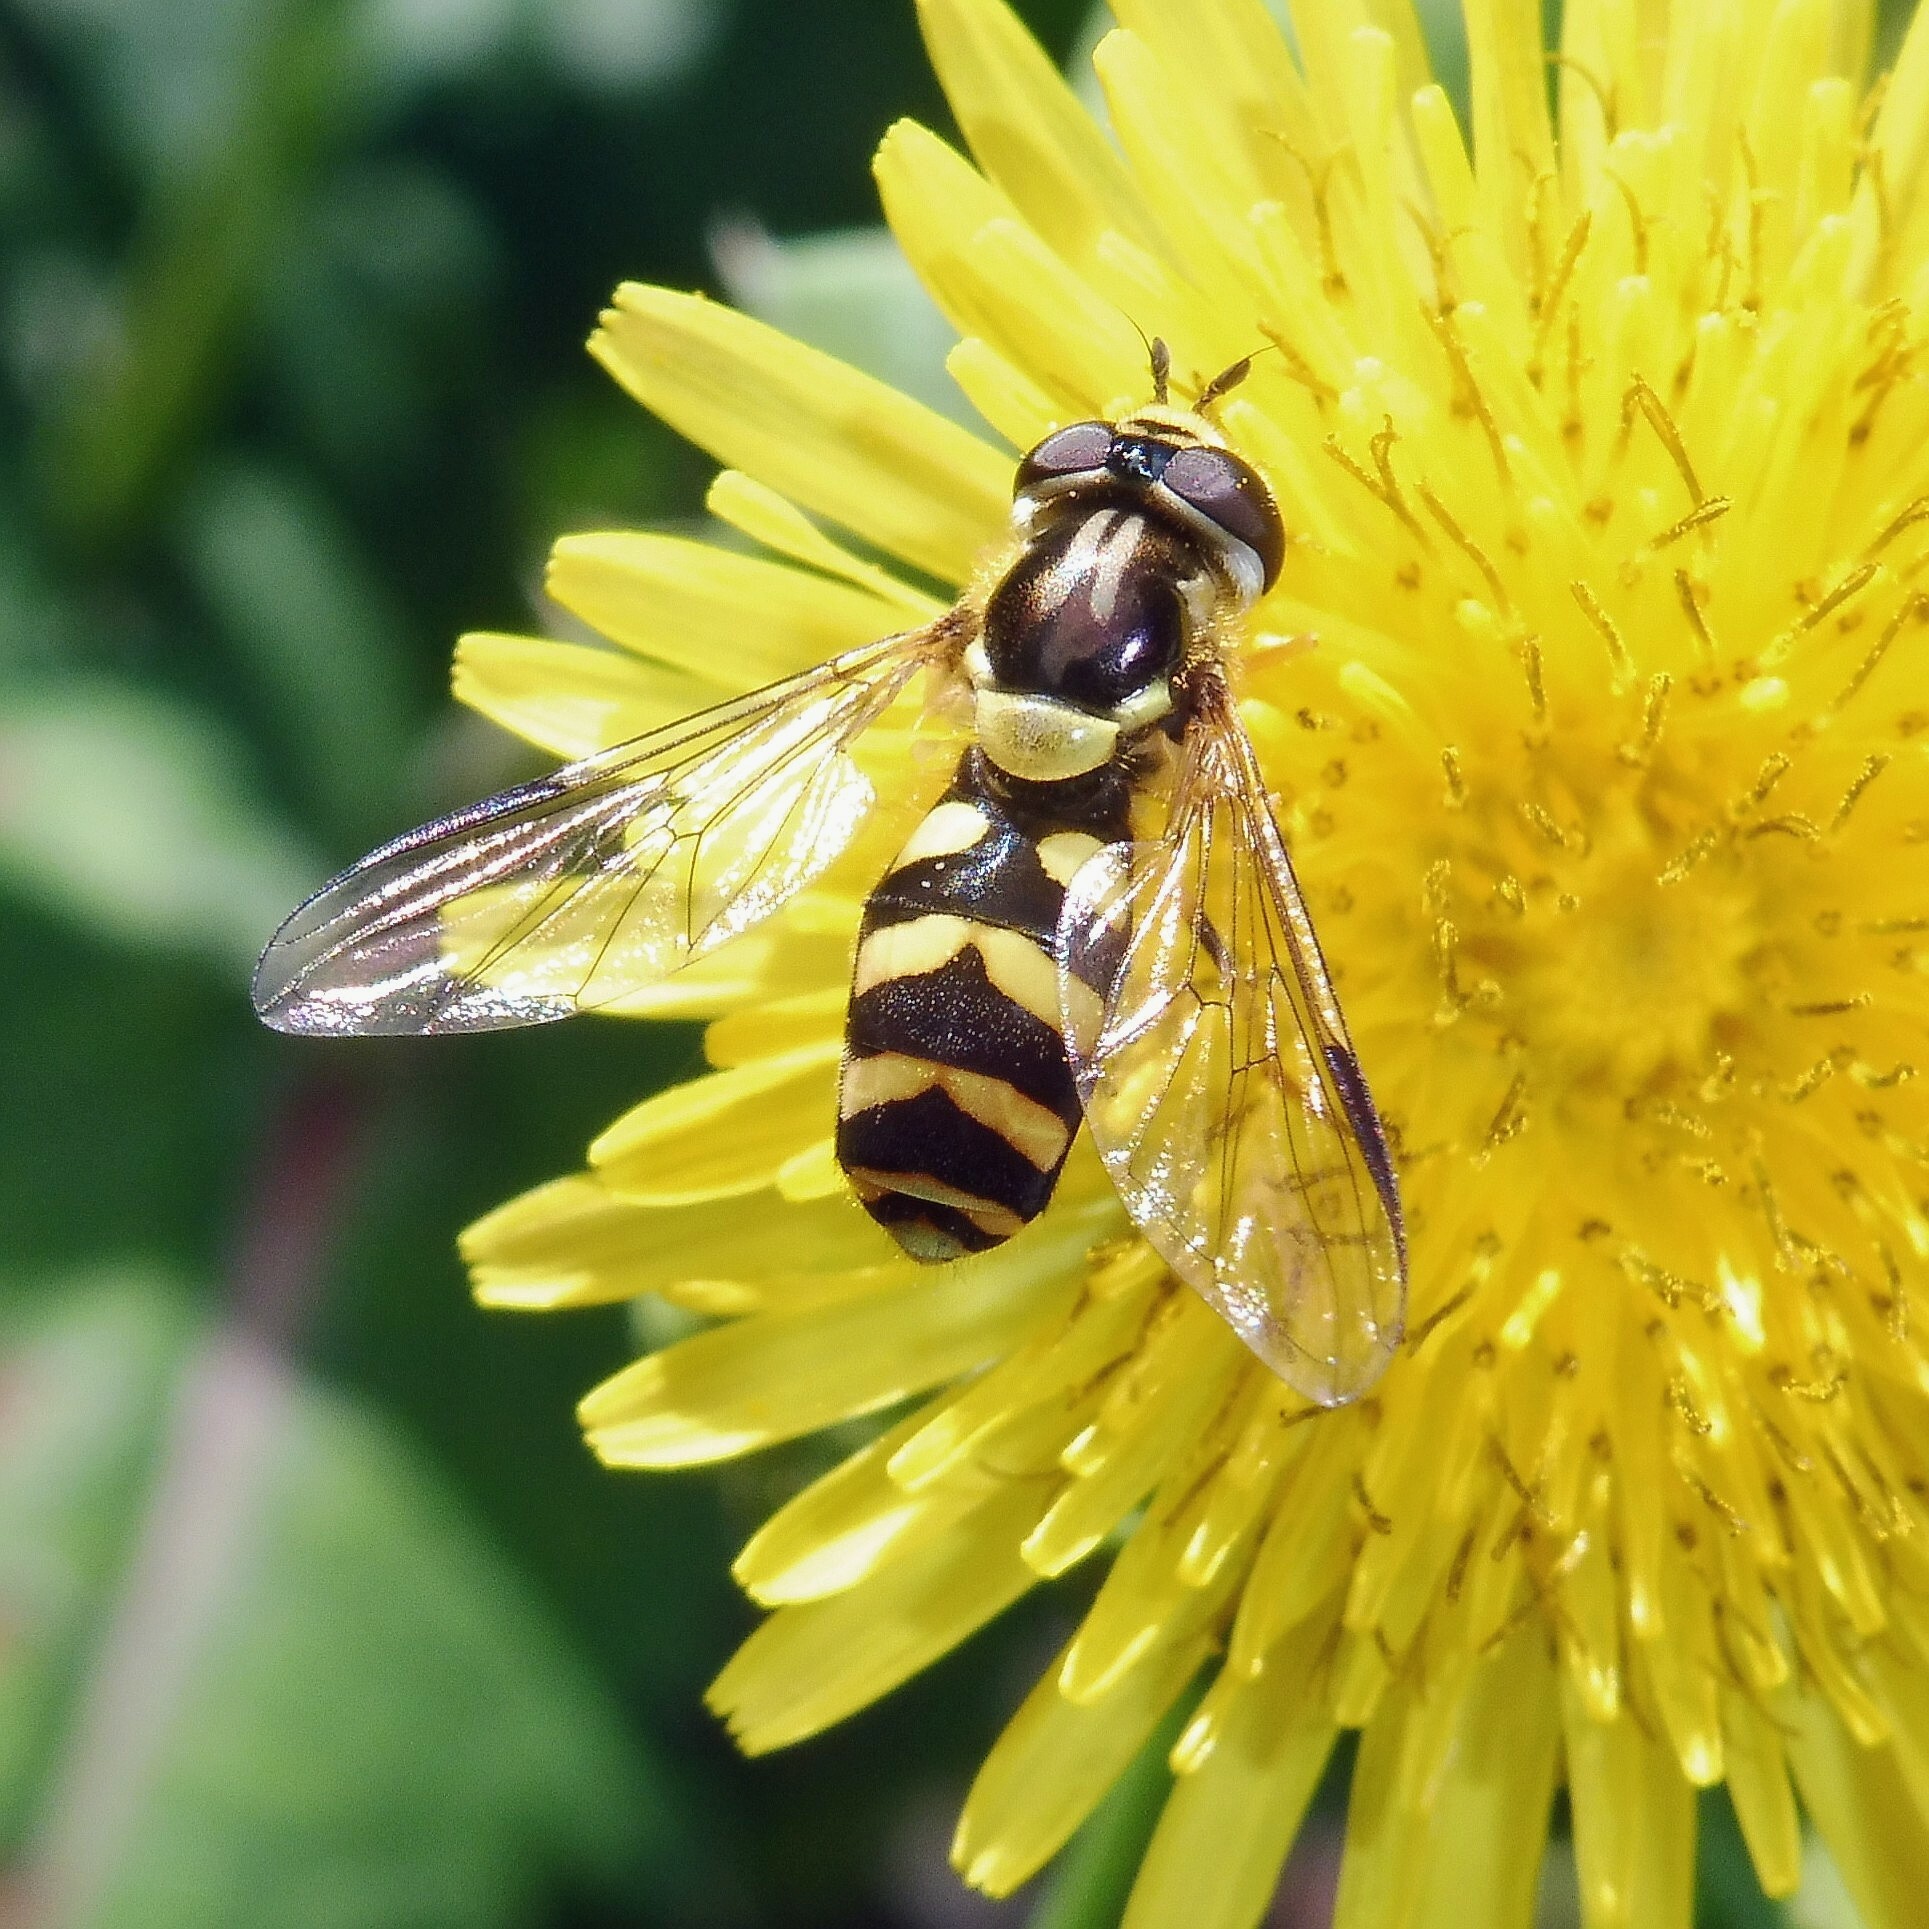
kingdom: Animalia
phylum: Arthropoda
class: Insecta
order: Diptera
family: Syrphidae
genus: Dasysyrphus
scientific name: Dasysyrphus albostriatus
